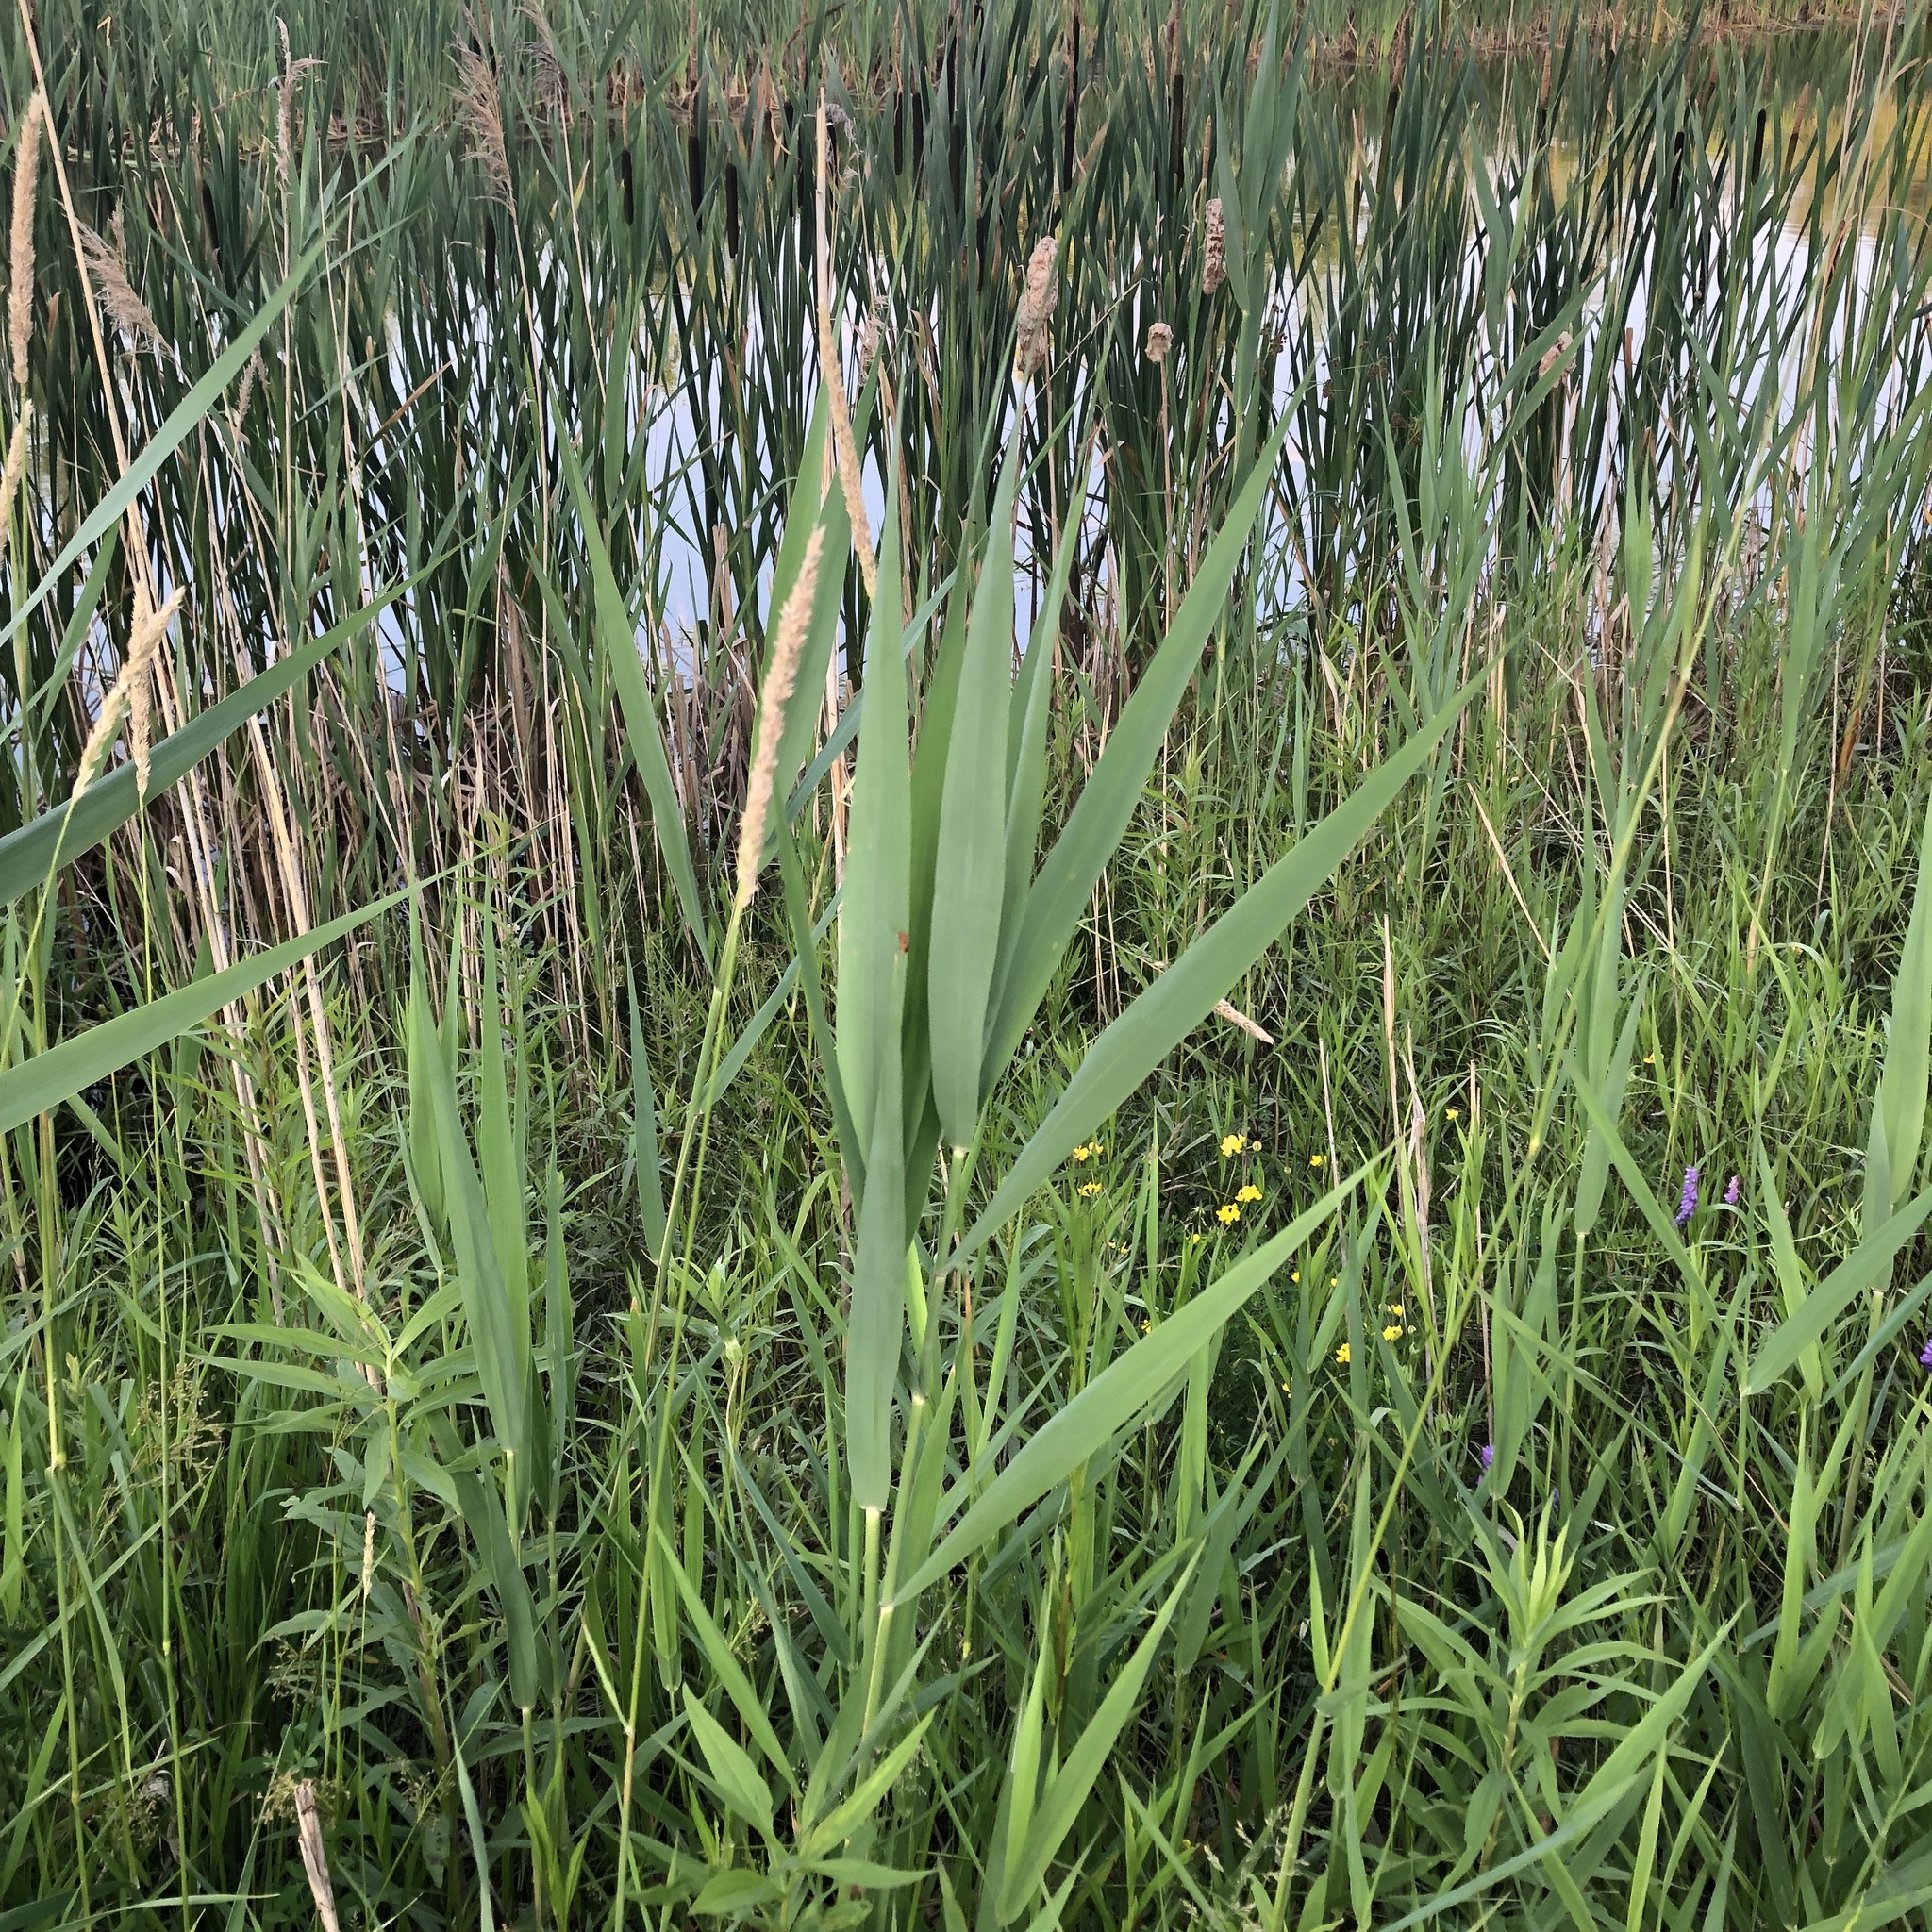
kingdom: Plantae
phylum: Tracheophyta
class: Liliopsida
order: Poales
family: Poaceae
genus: Phragmites
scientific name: Phragmites australis
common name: Common reed
